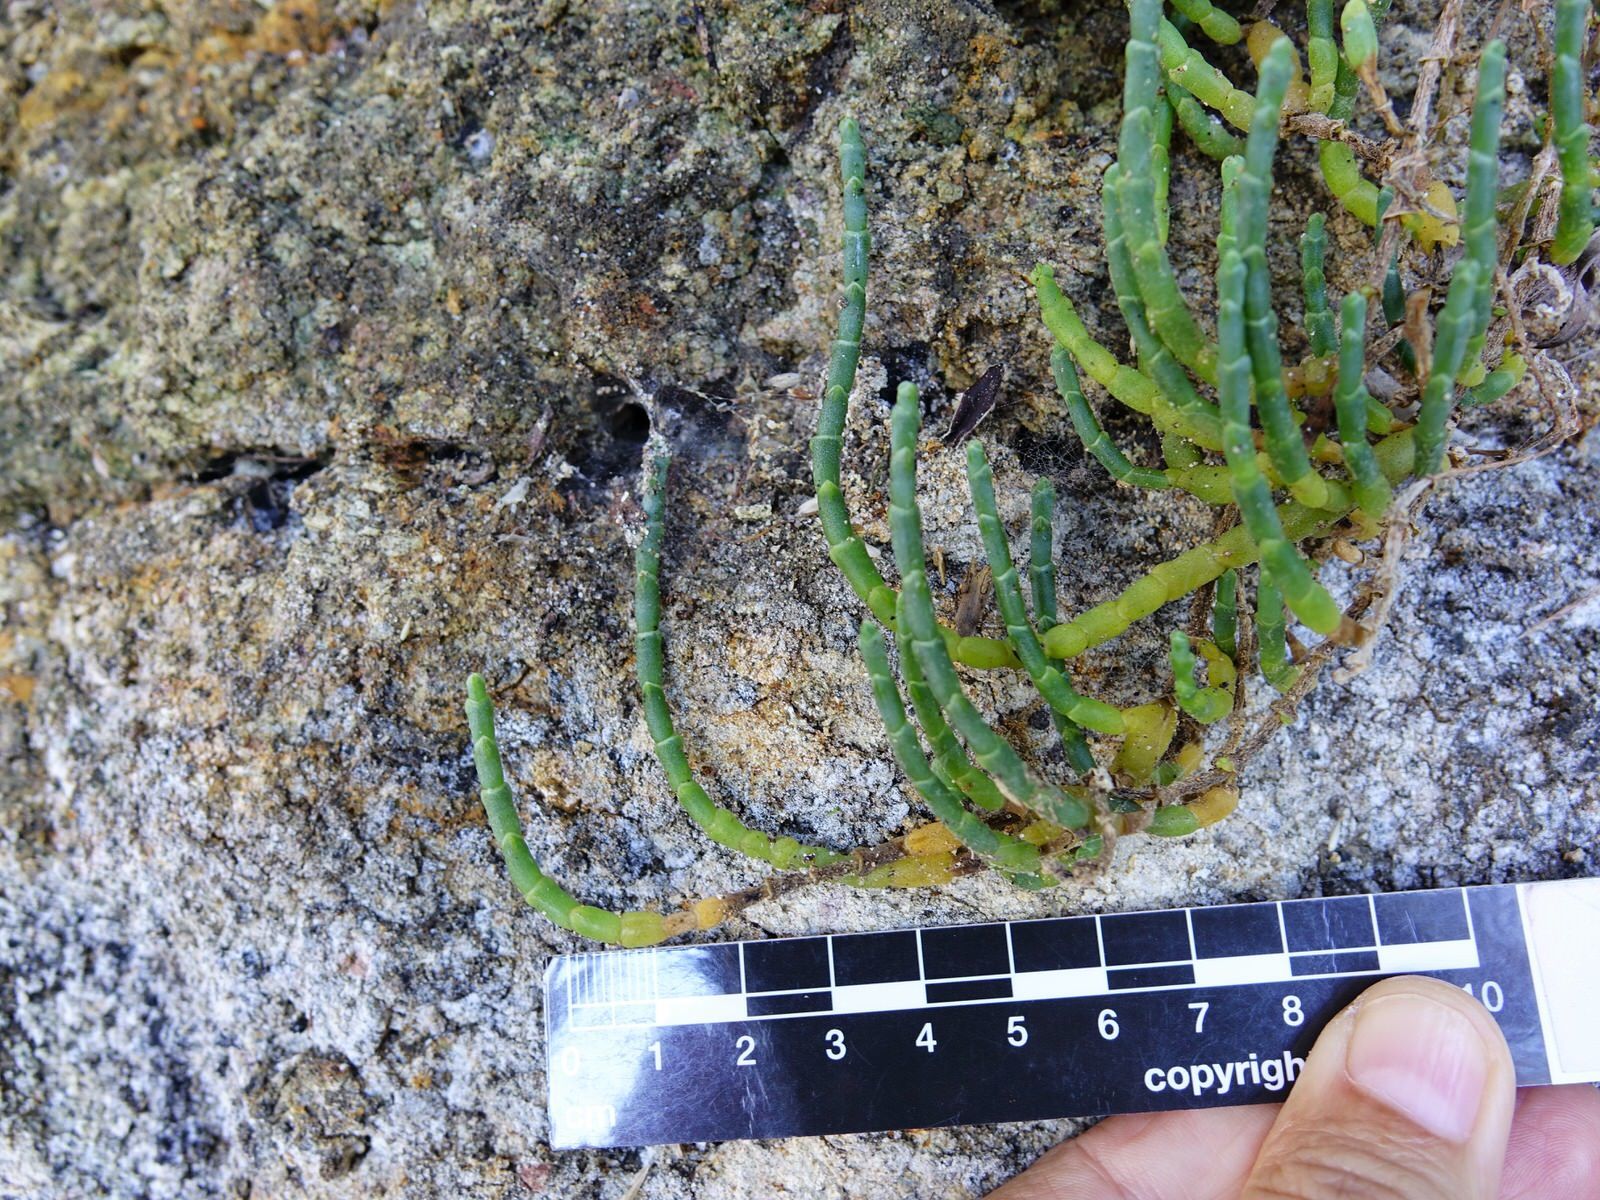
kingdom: Plantae
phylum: Tracheophyta
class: Magnoliopsida
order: Caryophyllales
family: Amaranthaceae
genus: Salicornia
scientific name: Salicornia quinqueflora
